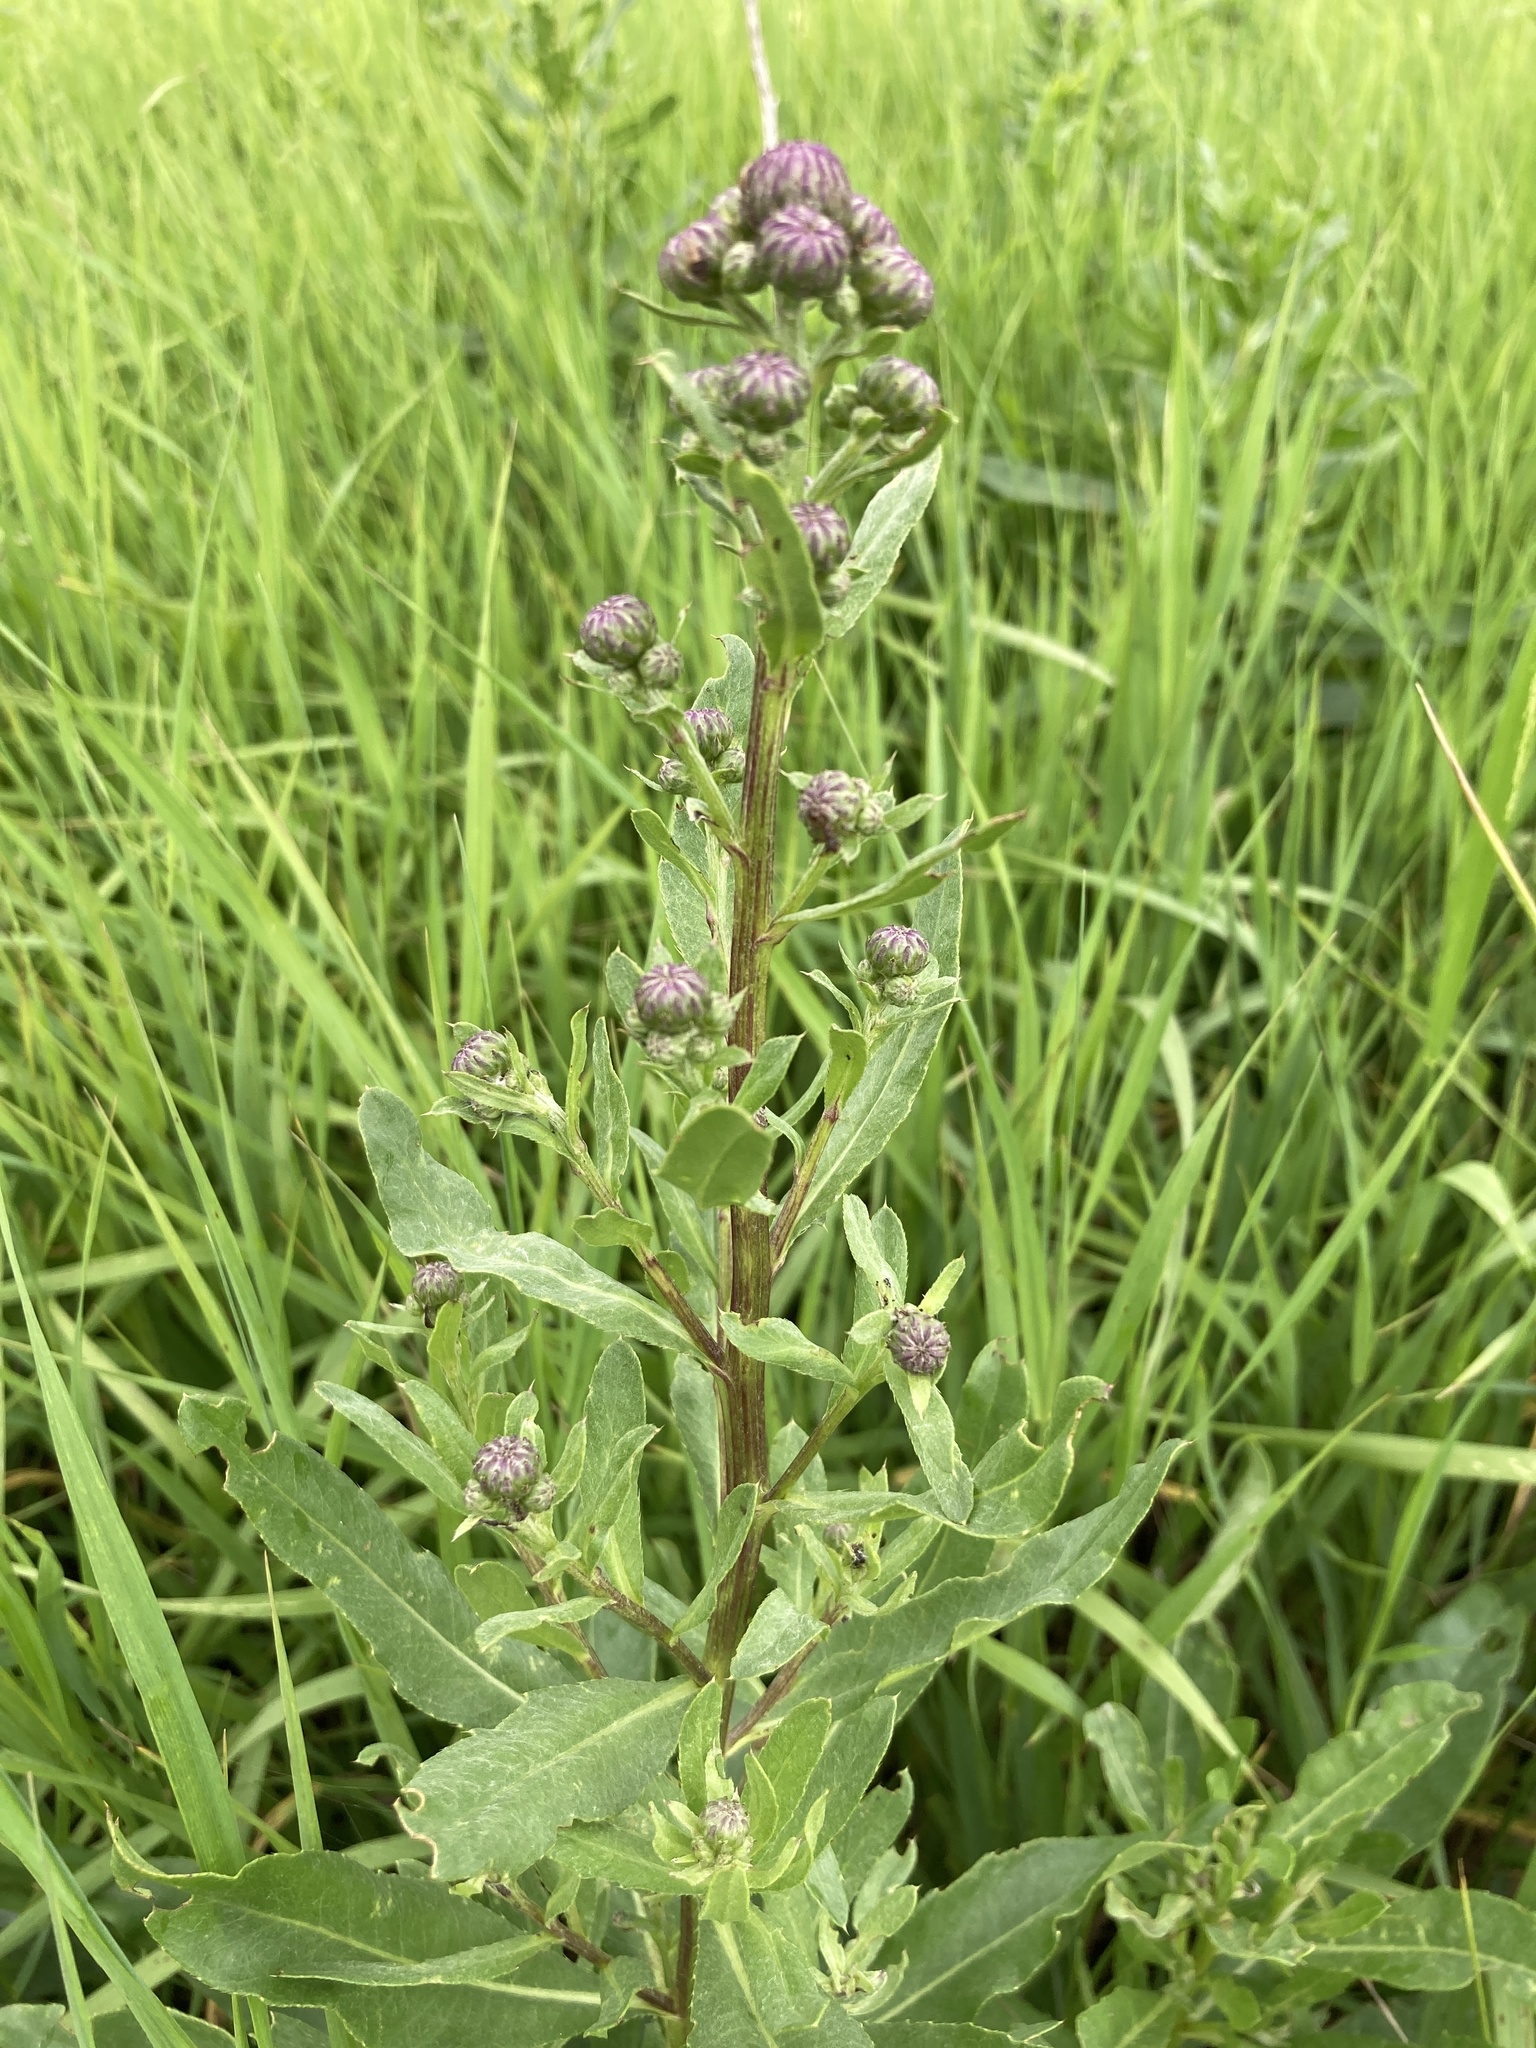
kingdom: Plantae
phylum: Tracheophyta
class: Magnoliopsida
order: Asterales
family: Asteraceae
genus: Cirsium
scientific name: Cirsium arvense
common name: Creeping thistle
